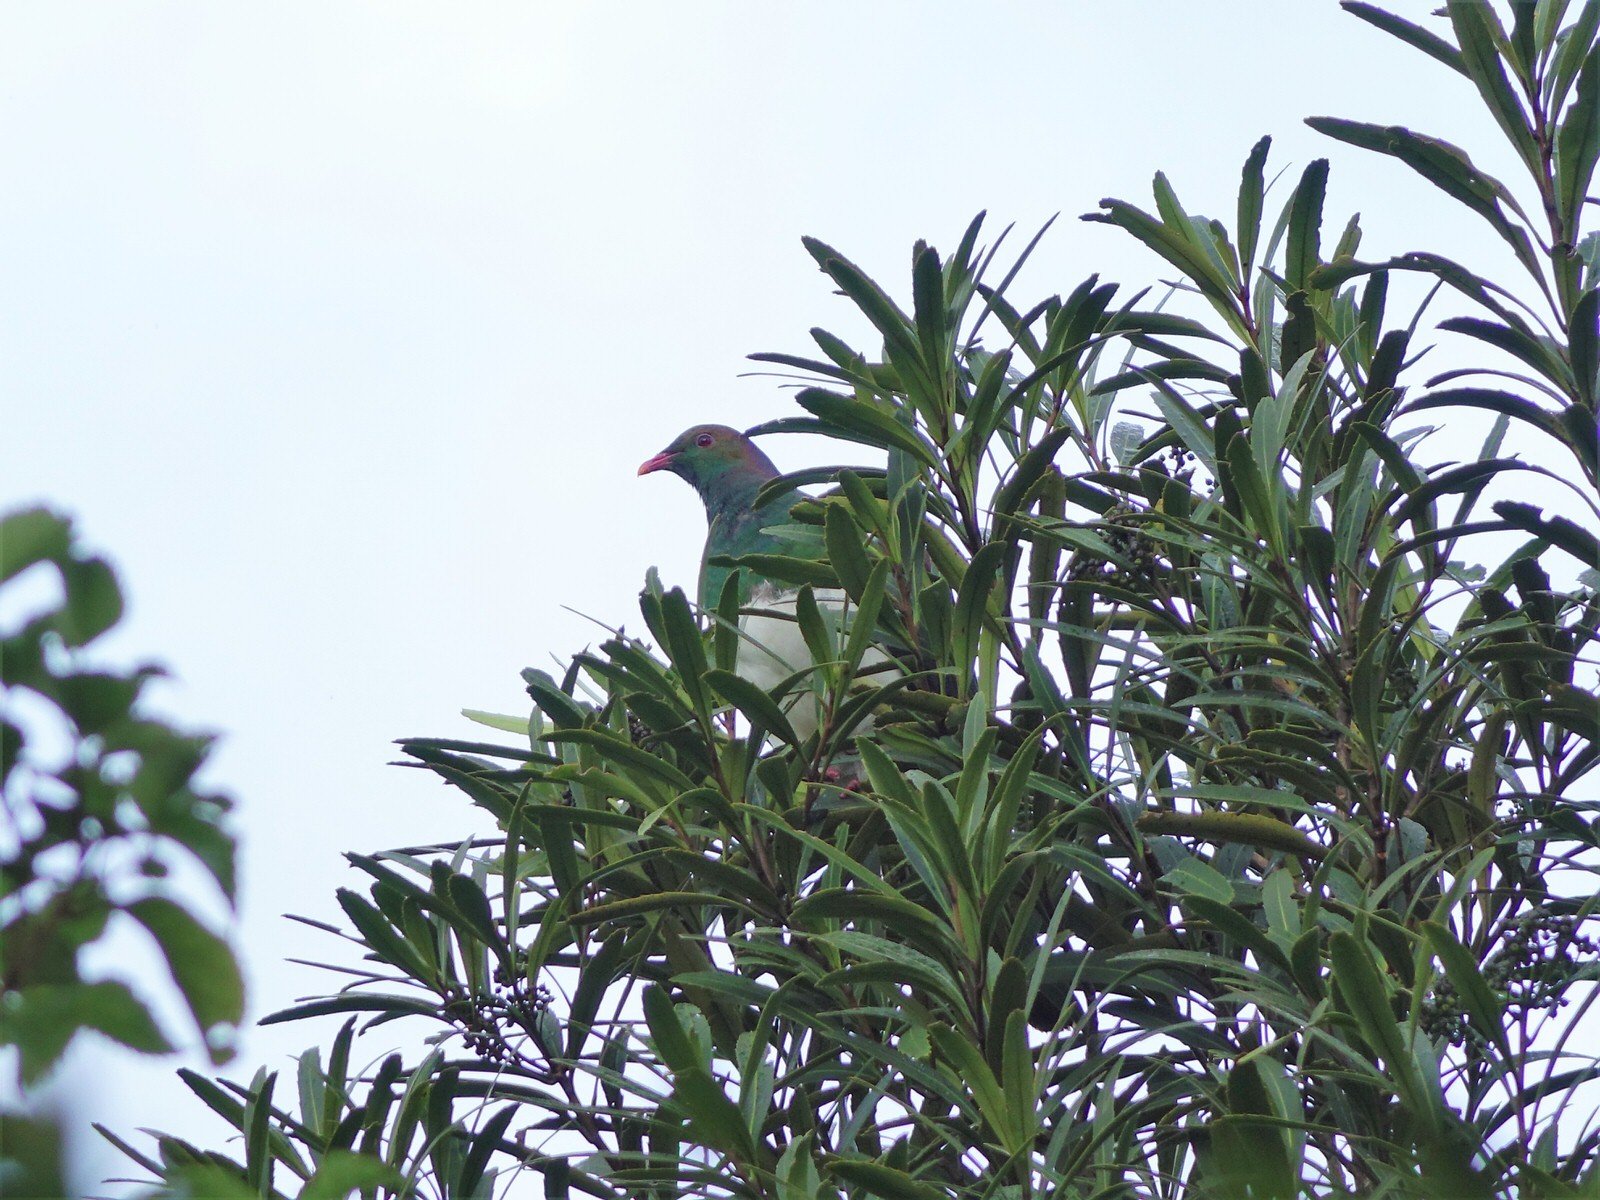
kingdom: Animalia
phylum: Chordata
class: Aves
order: Columbiformes
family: Columbidae
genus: Hemiphaga
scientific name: Hemiphaga novaeseelandiae
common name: New zealand pigeon
